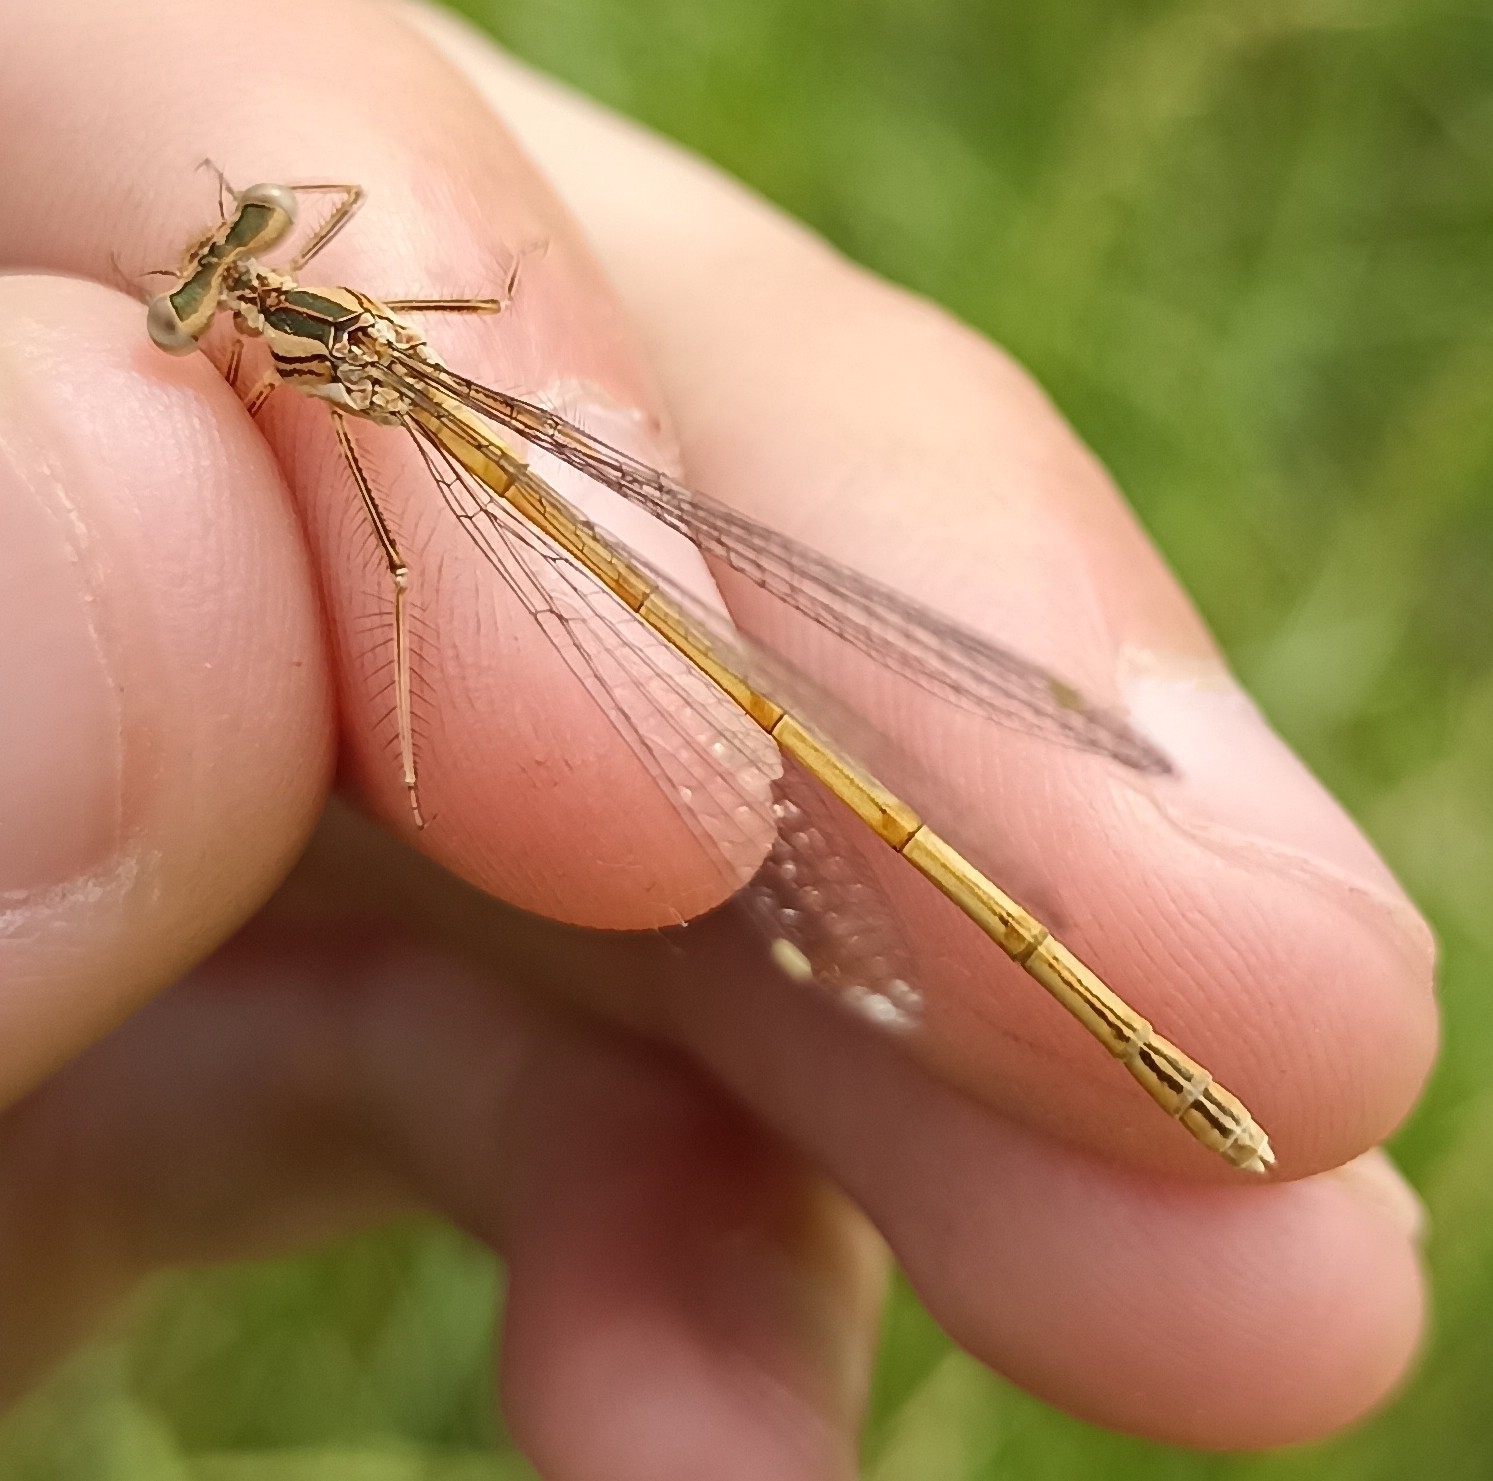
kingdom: Animalia
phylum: Arthropoda
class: Insecta
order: Odonata
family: Platycnemididae
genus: Platycnemis
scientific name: Platycnemis acutipennis
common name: Orange featherleg
